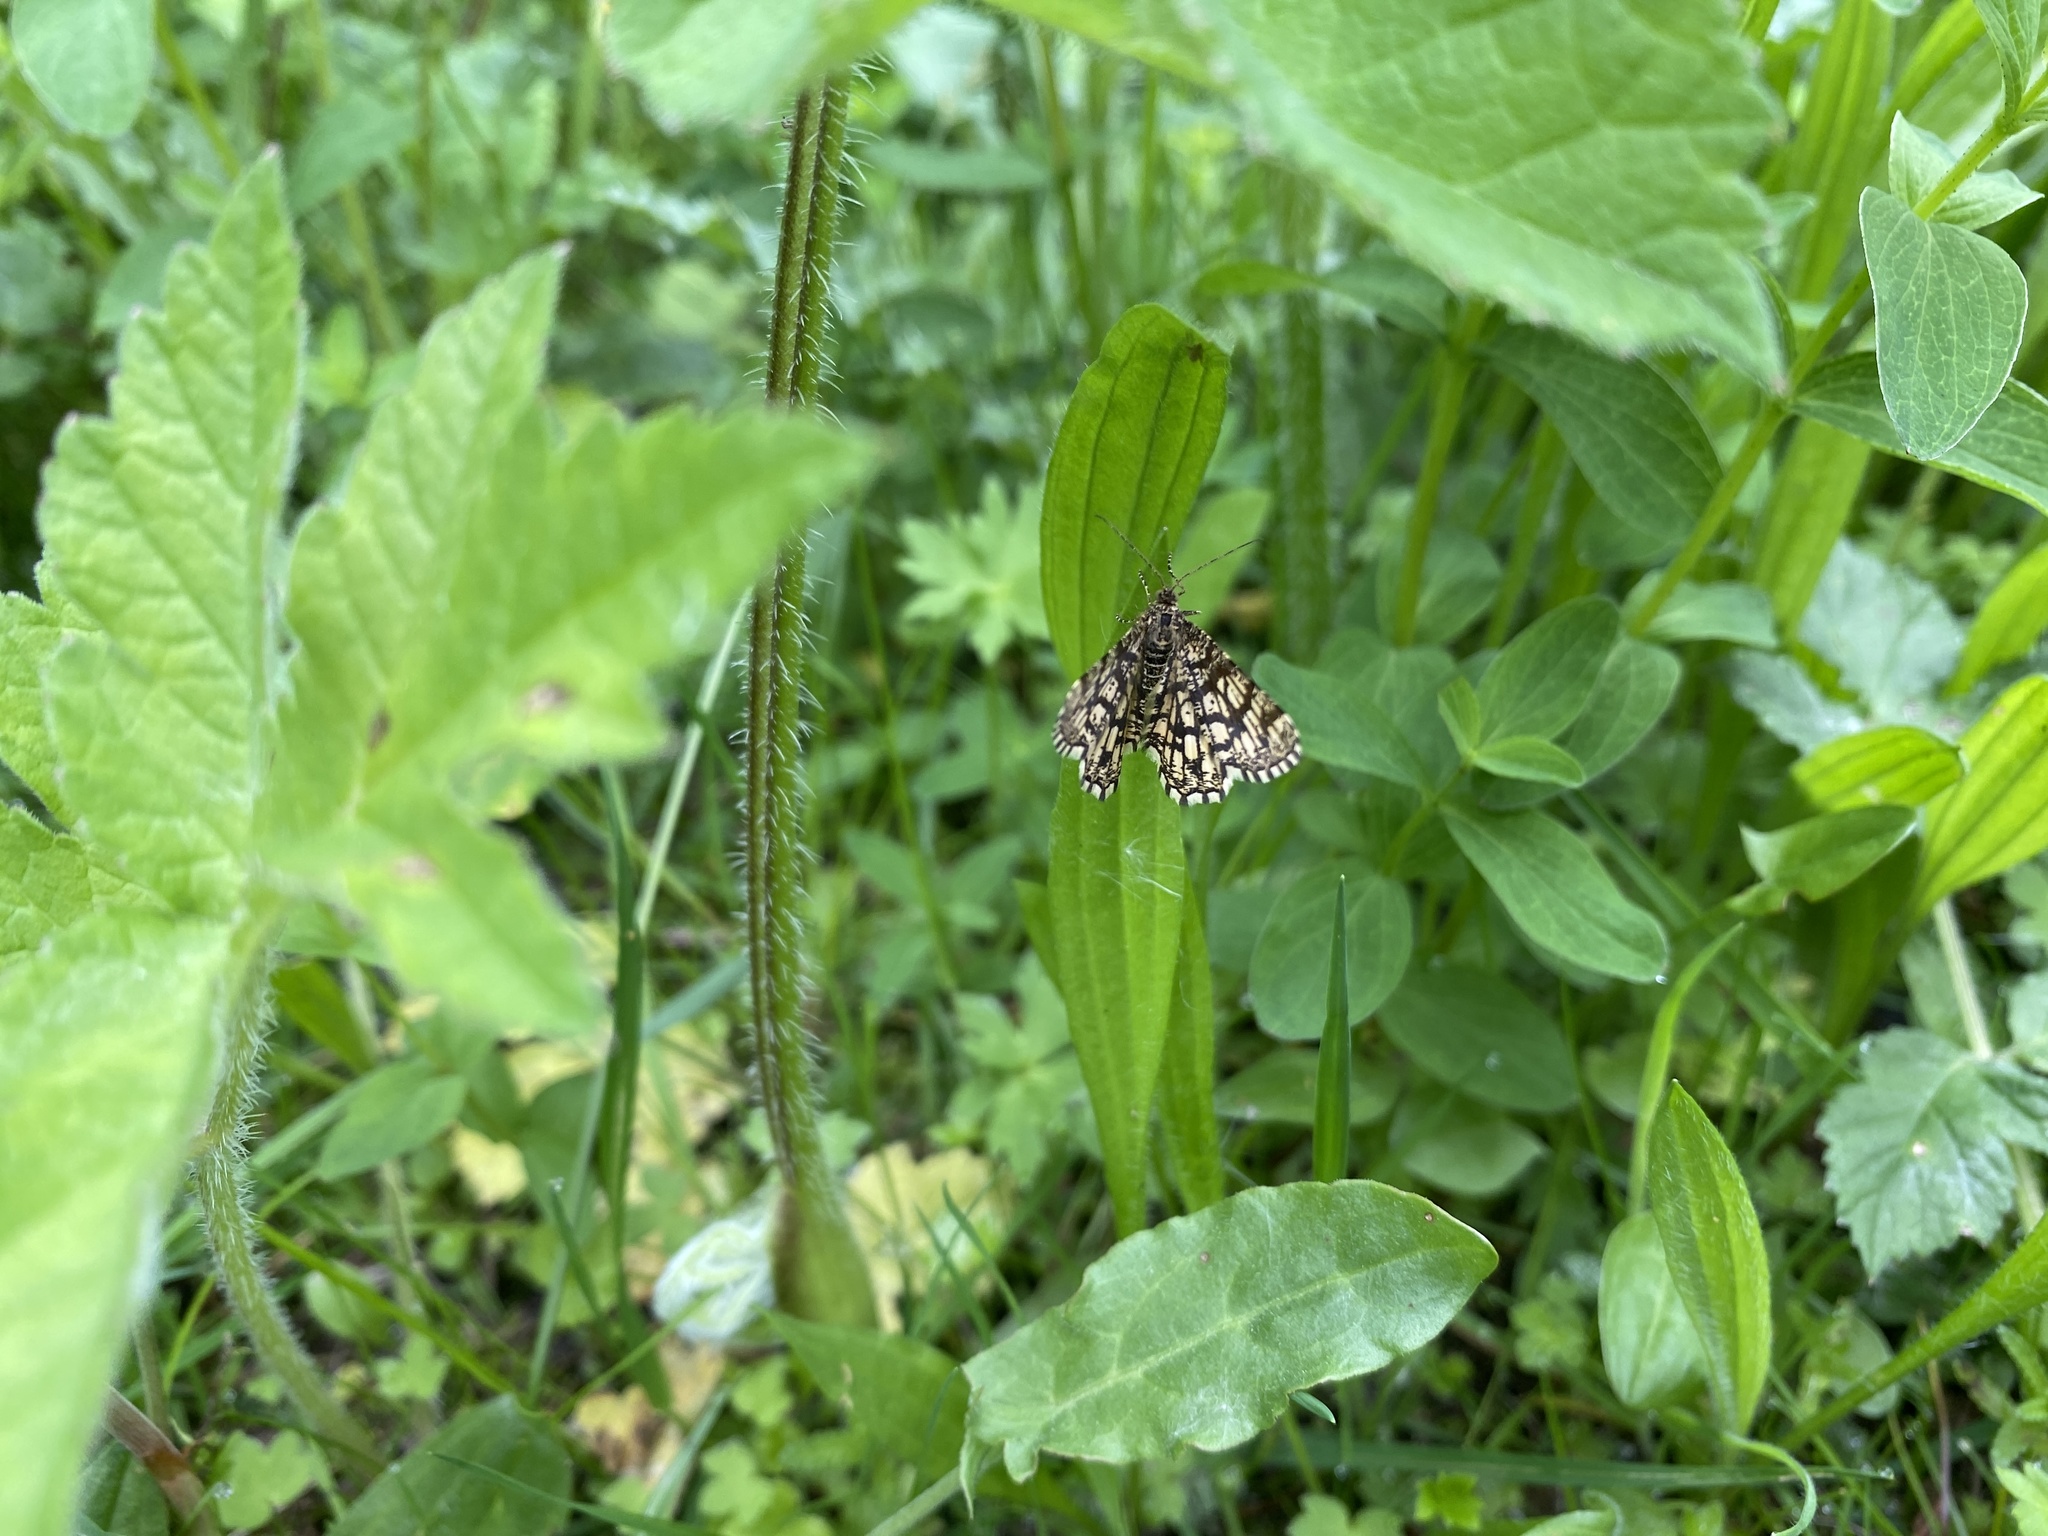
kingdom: Animalia
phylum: Arthropoda
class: Insecta
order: Lepidoptera
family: Geometridae
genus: Chiasmia
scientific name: Chiasmia clathrata
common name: Latticed heath
